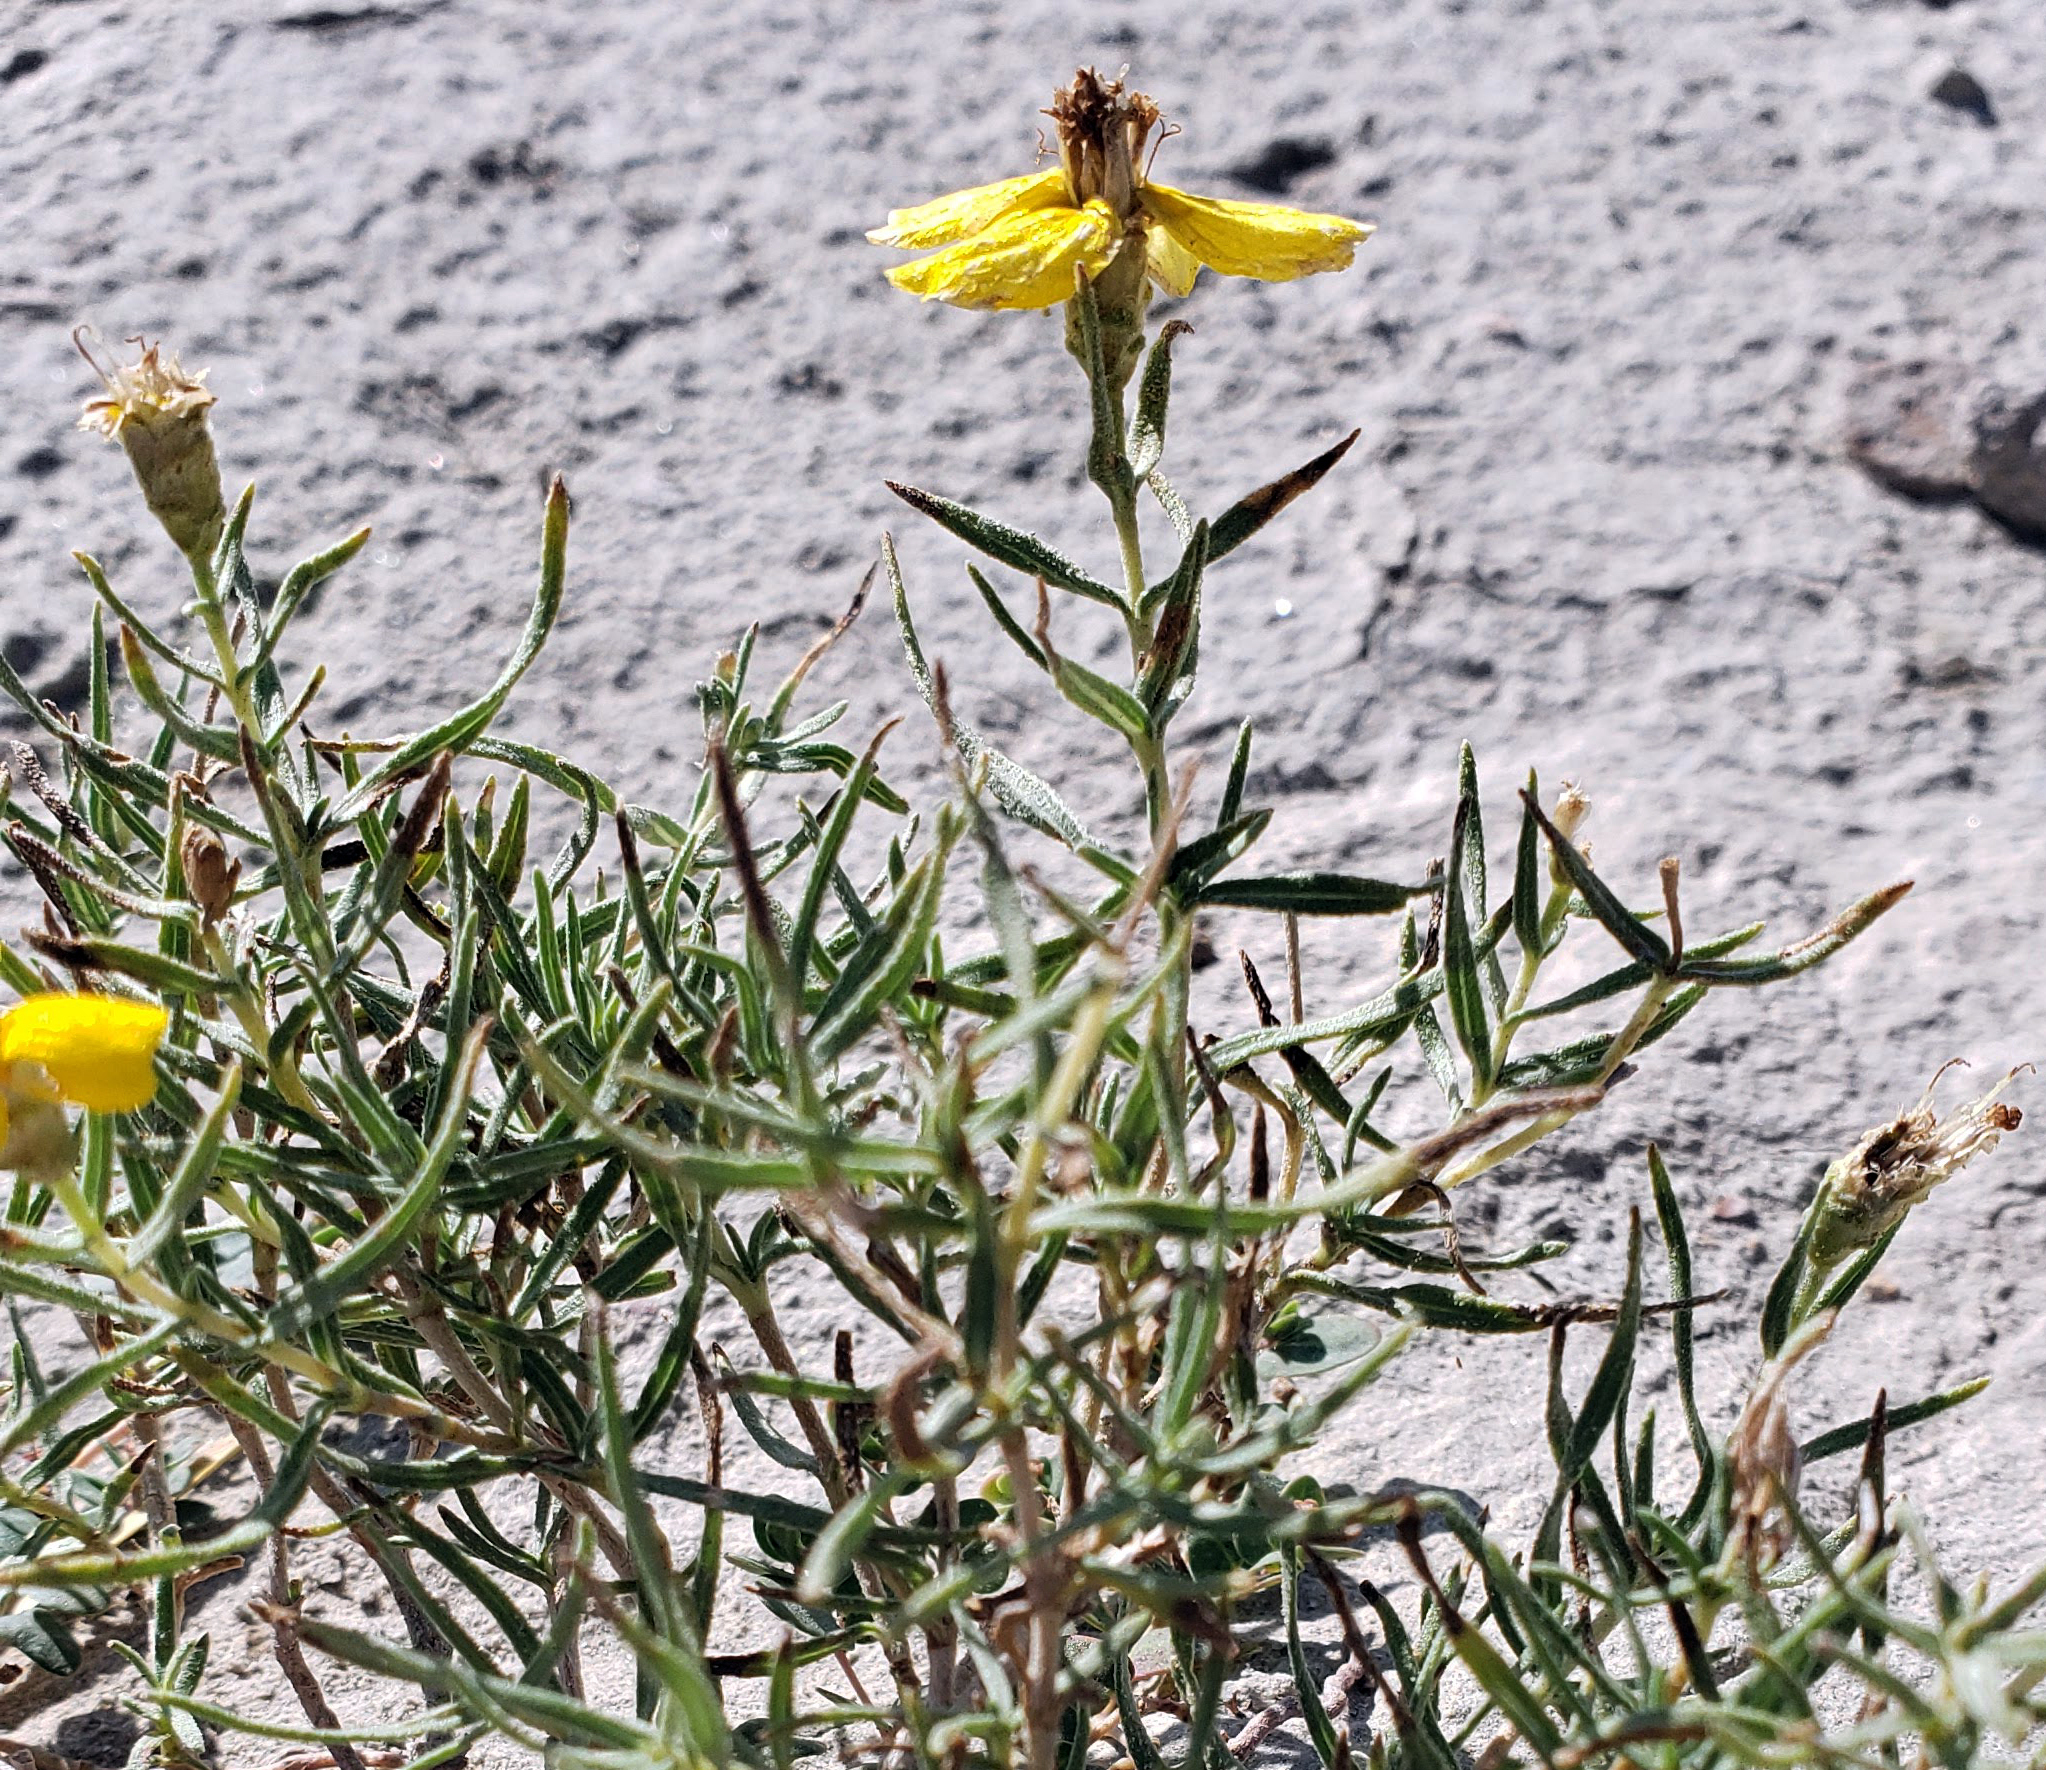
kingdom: Plantae
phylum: Tracheophyta
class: Magnoliopsida
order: Asterales
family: Asteraceae
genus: Zinnia
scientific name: Zinnia grandiflora
